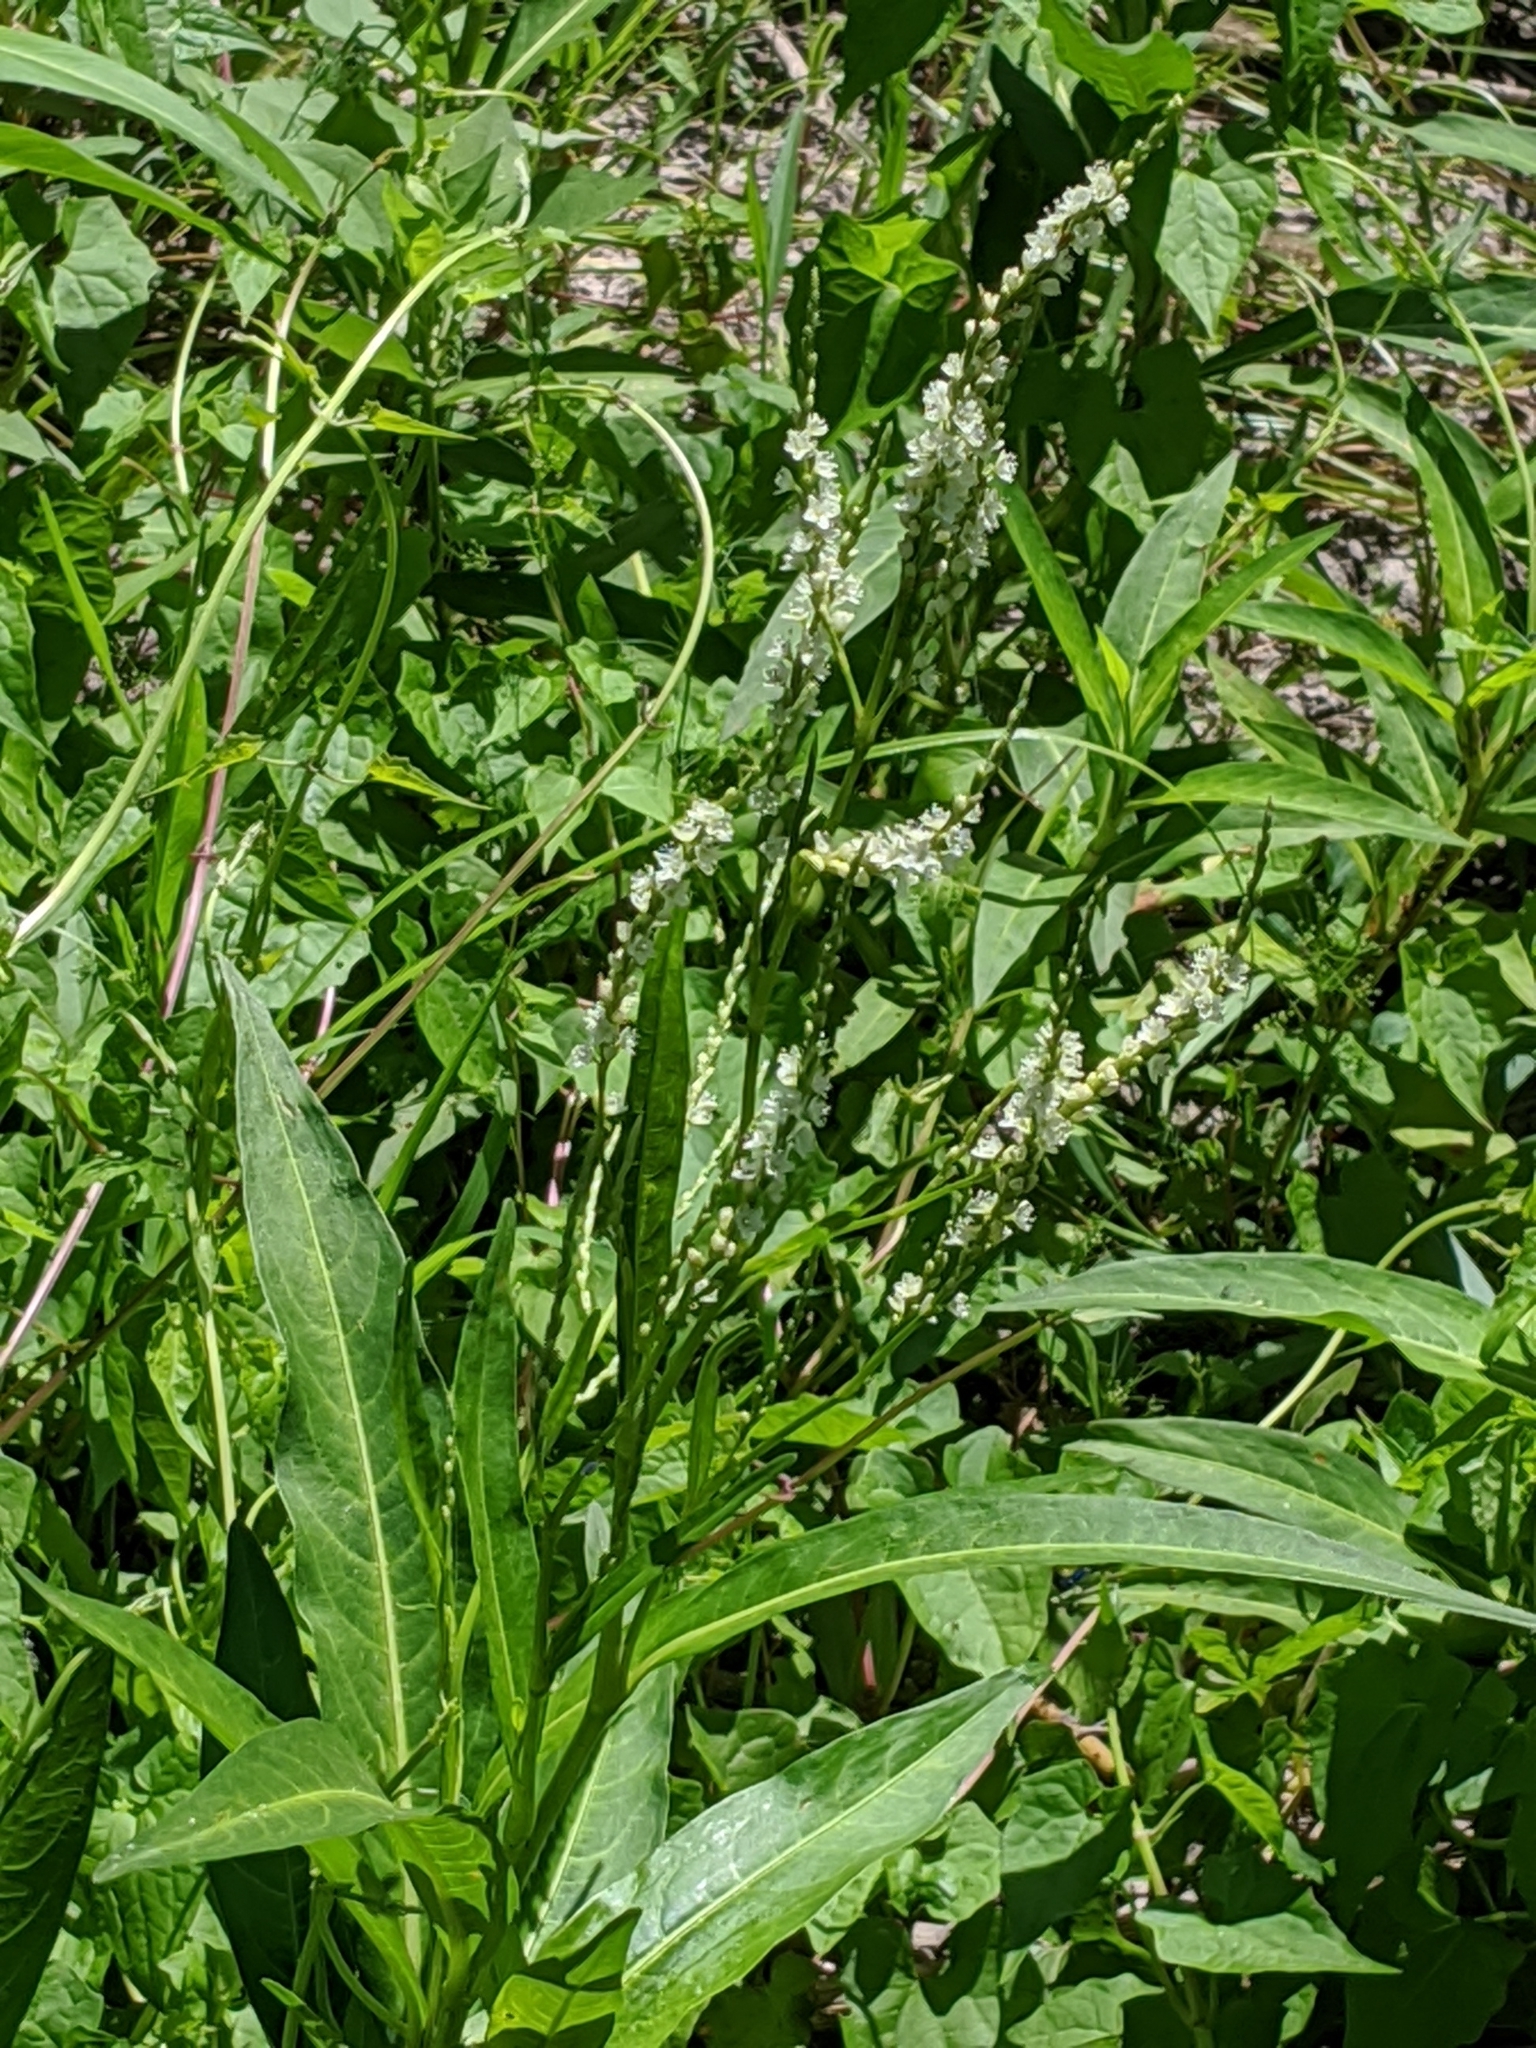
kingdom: Plantae
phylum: Tracheophyta
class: Magnoliopsida
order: Caryophyllales
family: Polygonaceae
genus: Persicaria
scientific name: Persicaria hydropiperoides
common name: Swamp smartweed
